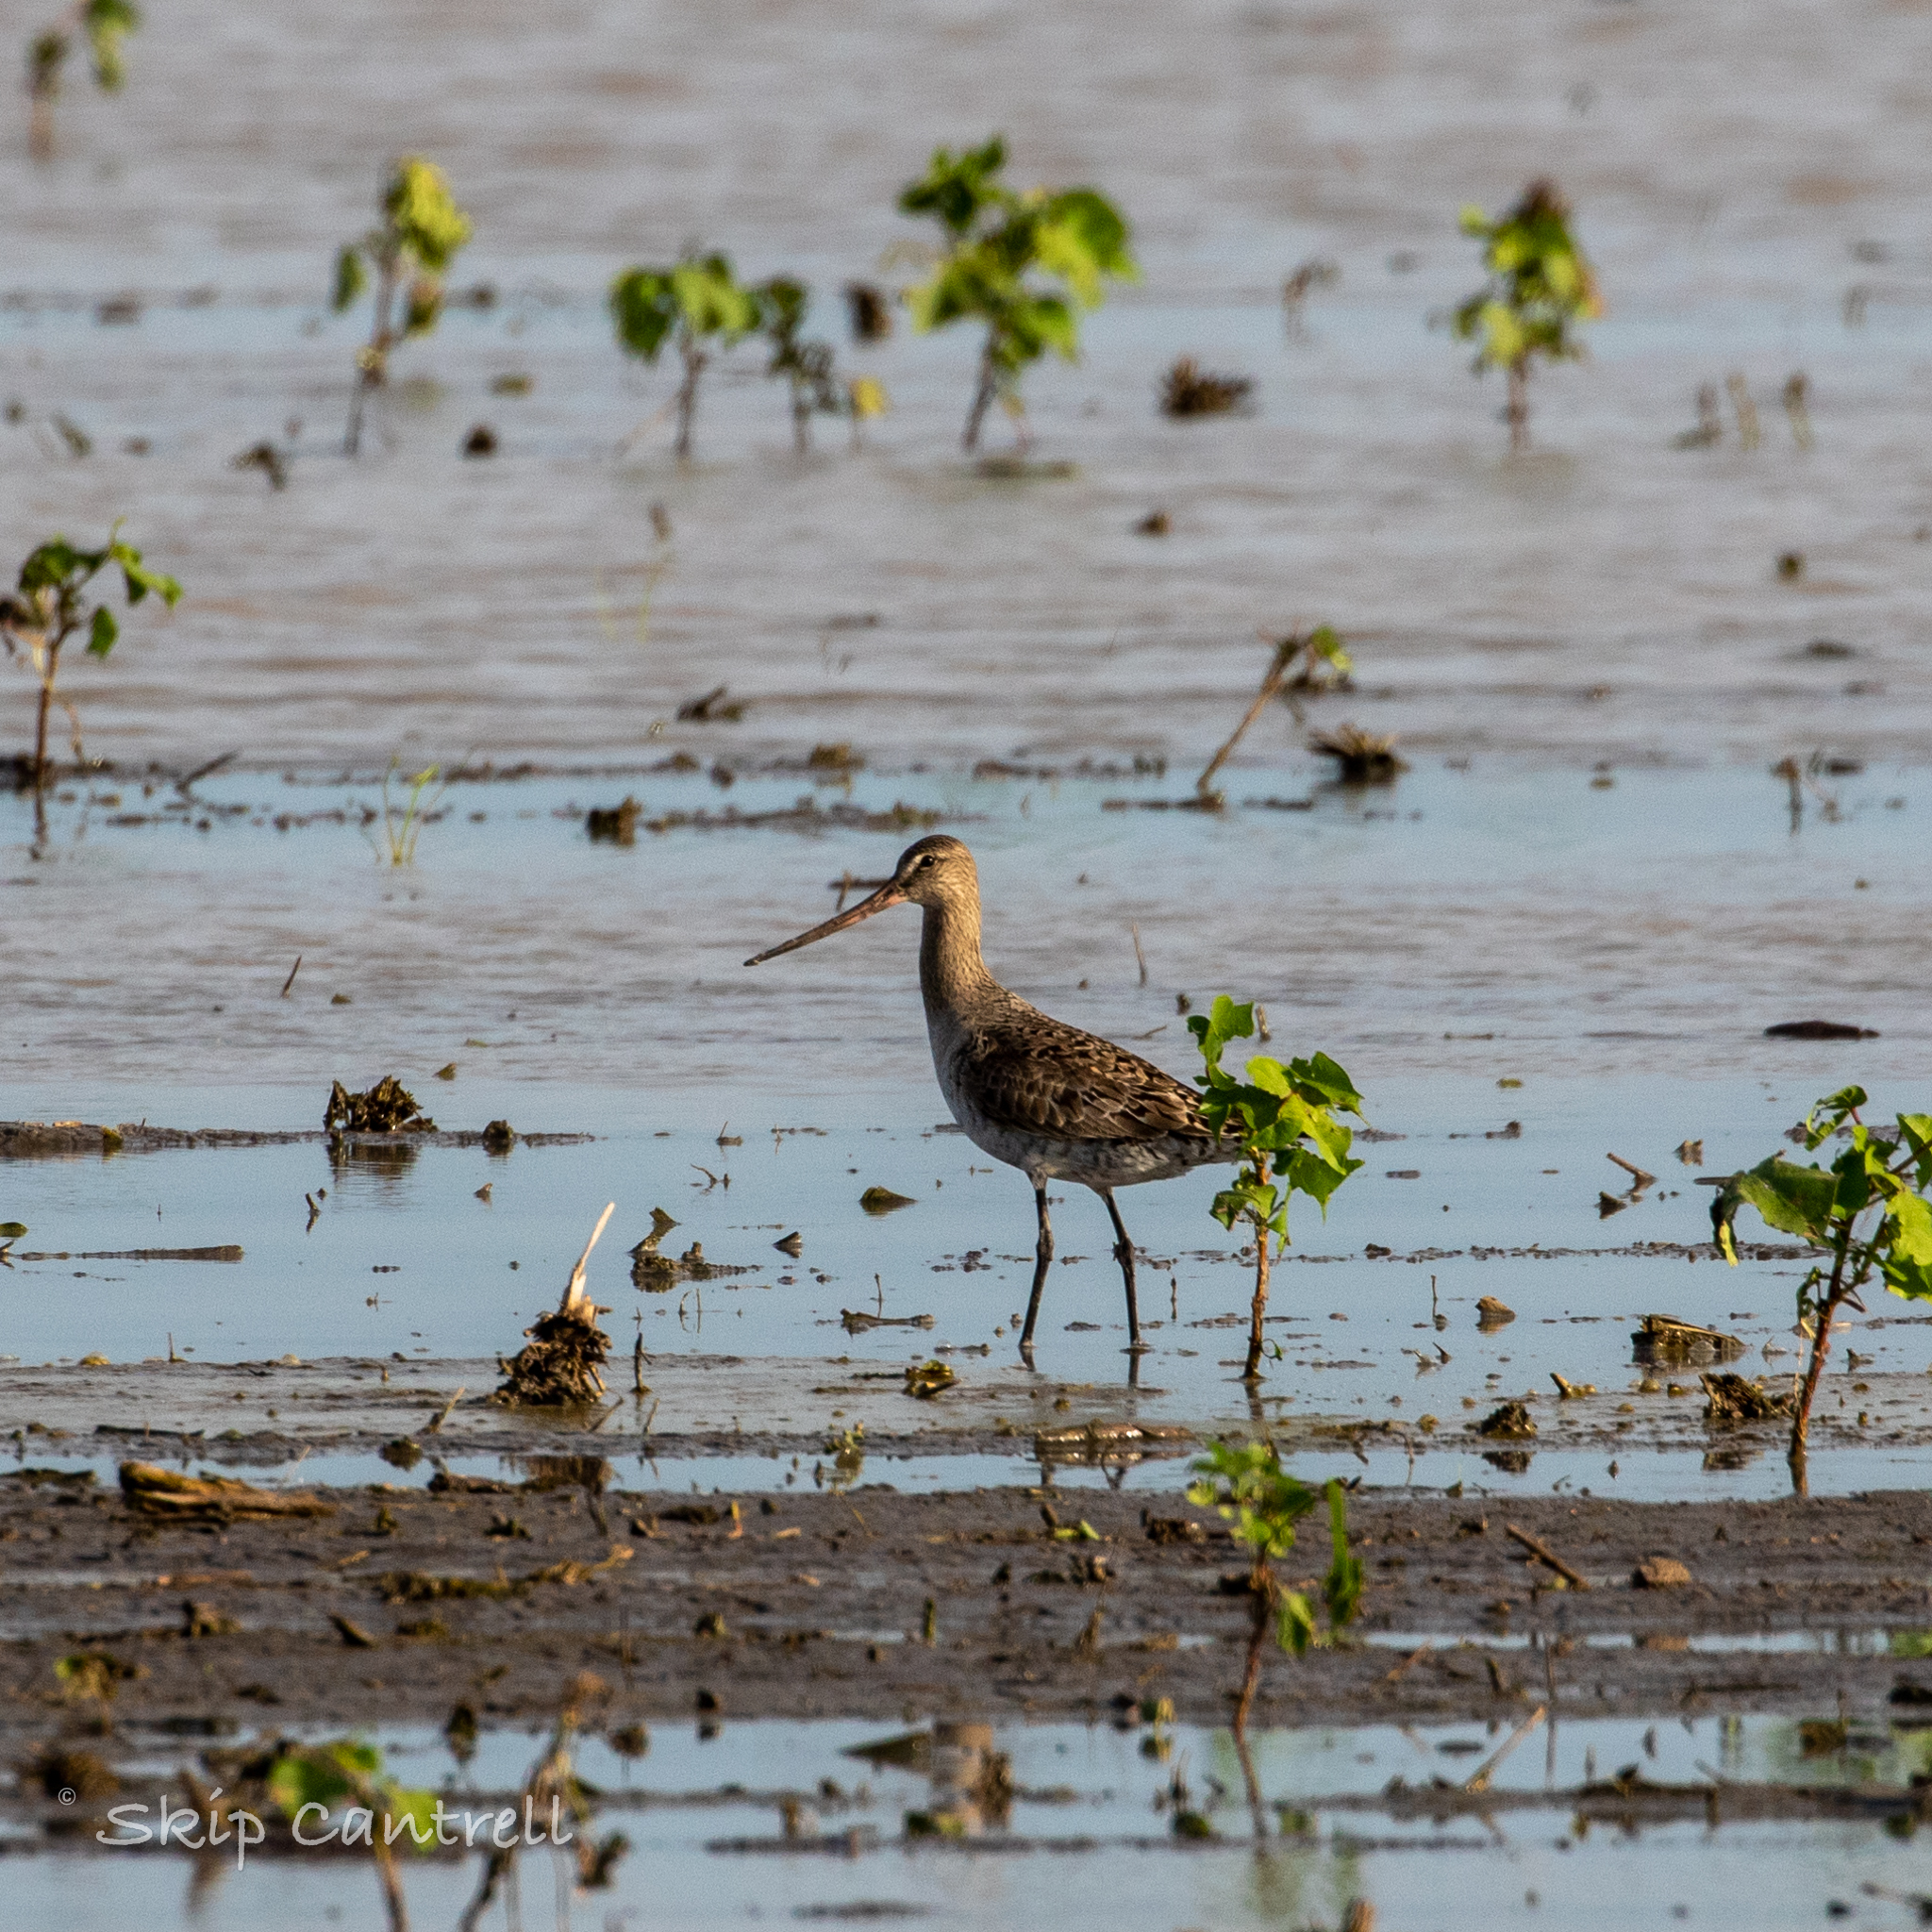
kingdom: Animalia
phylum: Chordata
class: Aves
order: Charadriiformes
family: Scolopacidae
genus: Limosa
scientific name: Limosa haemastica
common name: Hudsonian godwit
